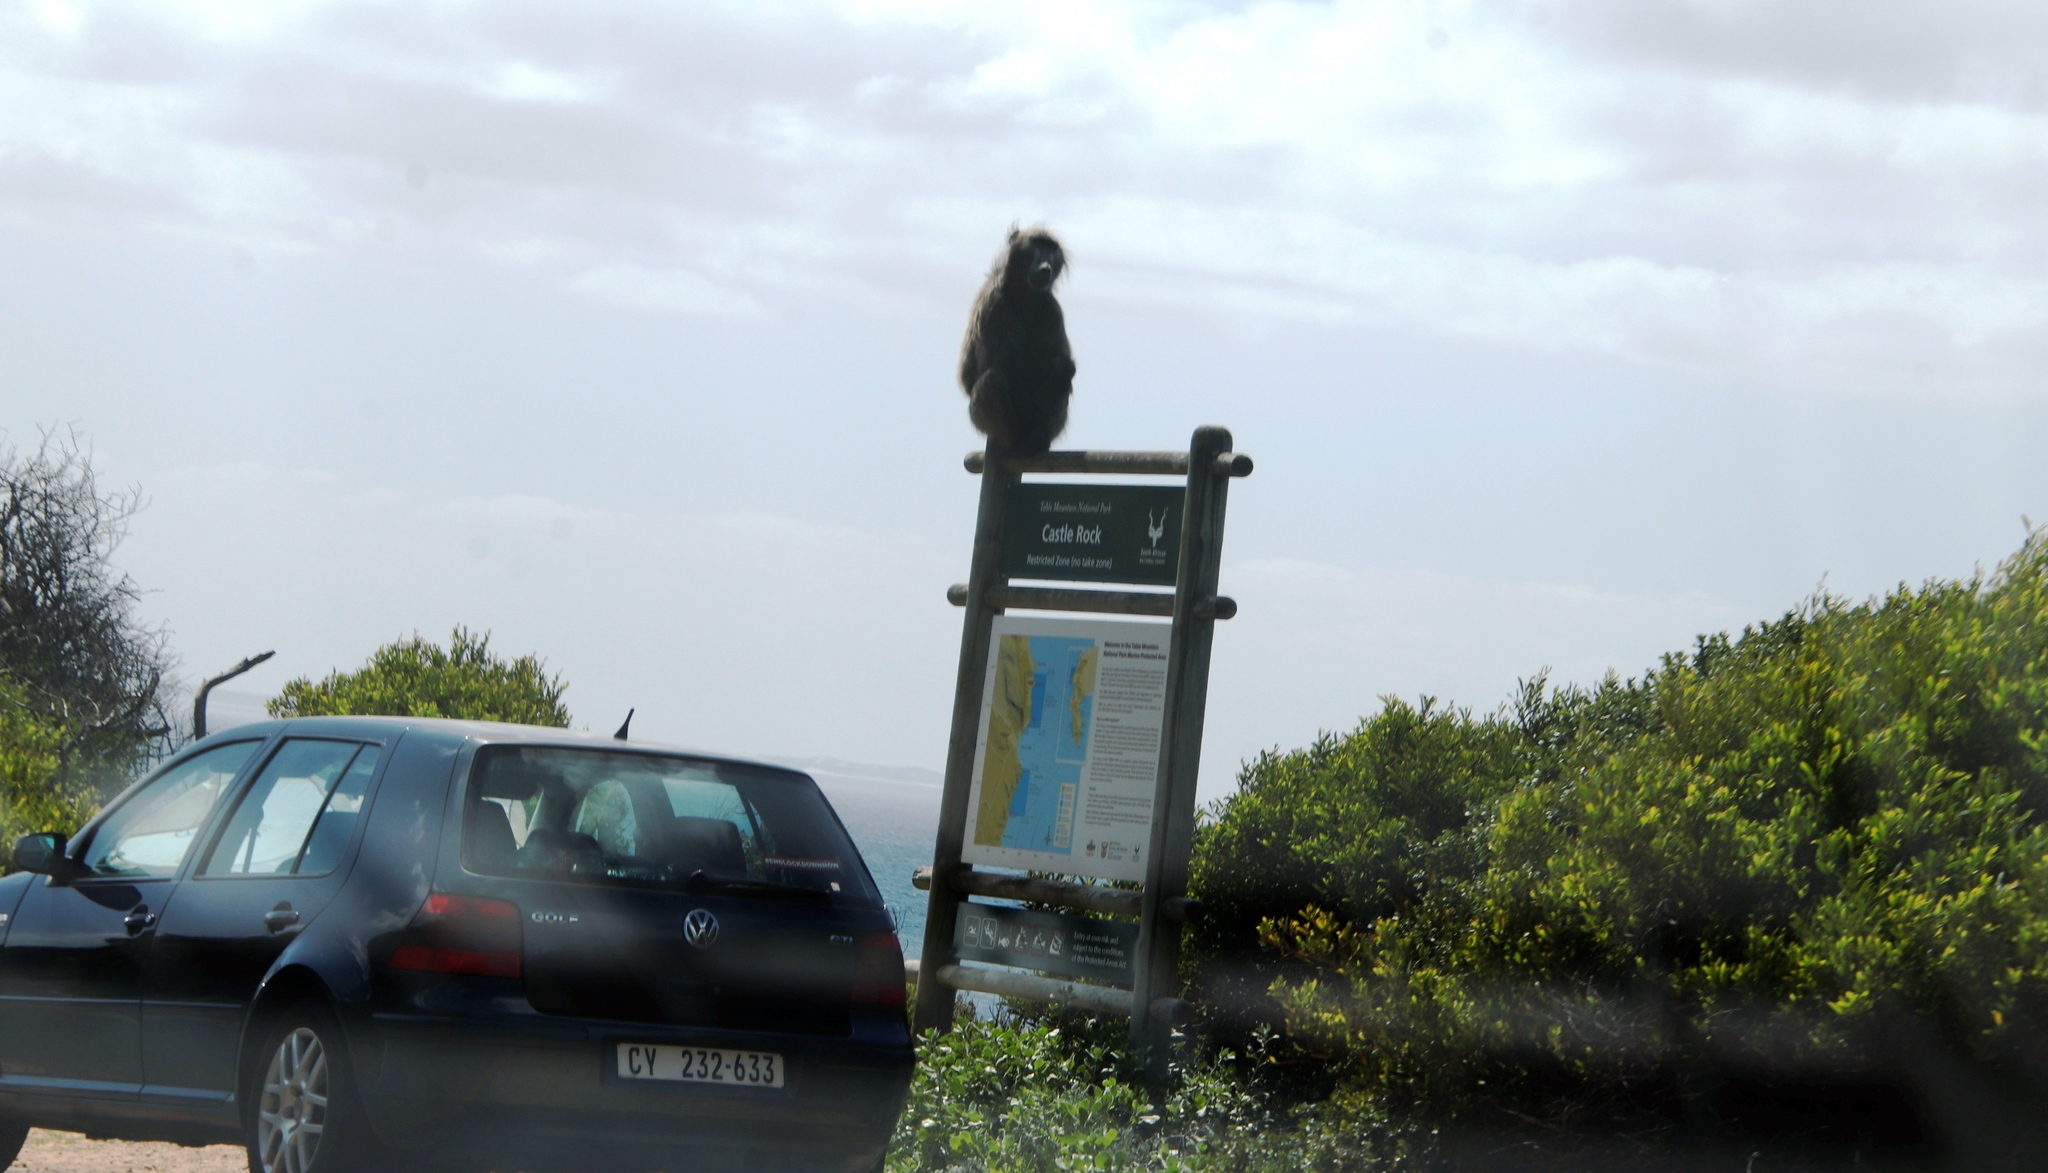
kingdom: Animalia
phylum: Chordata
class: Mammalia
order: Primates
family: Cercopithecidae
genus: Papio
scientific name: Papio ursinus
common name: Chacma baboon
